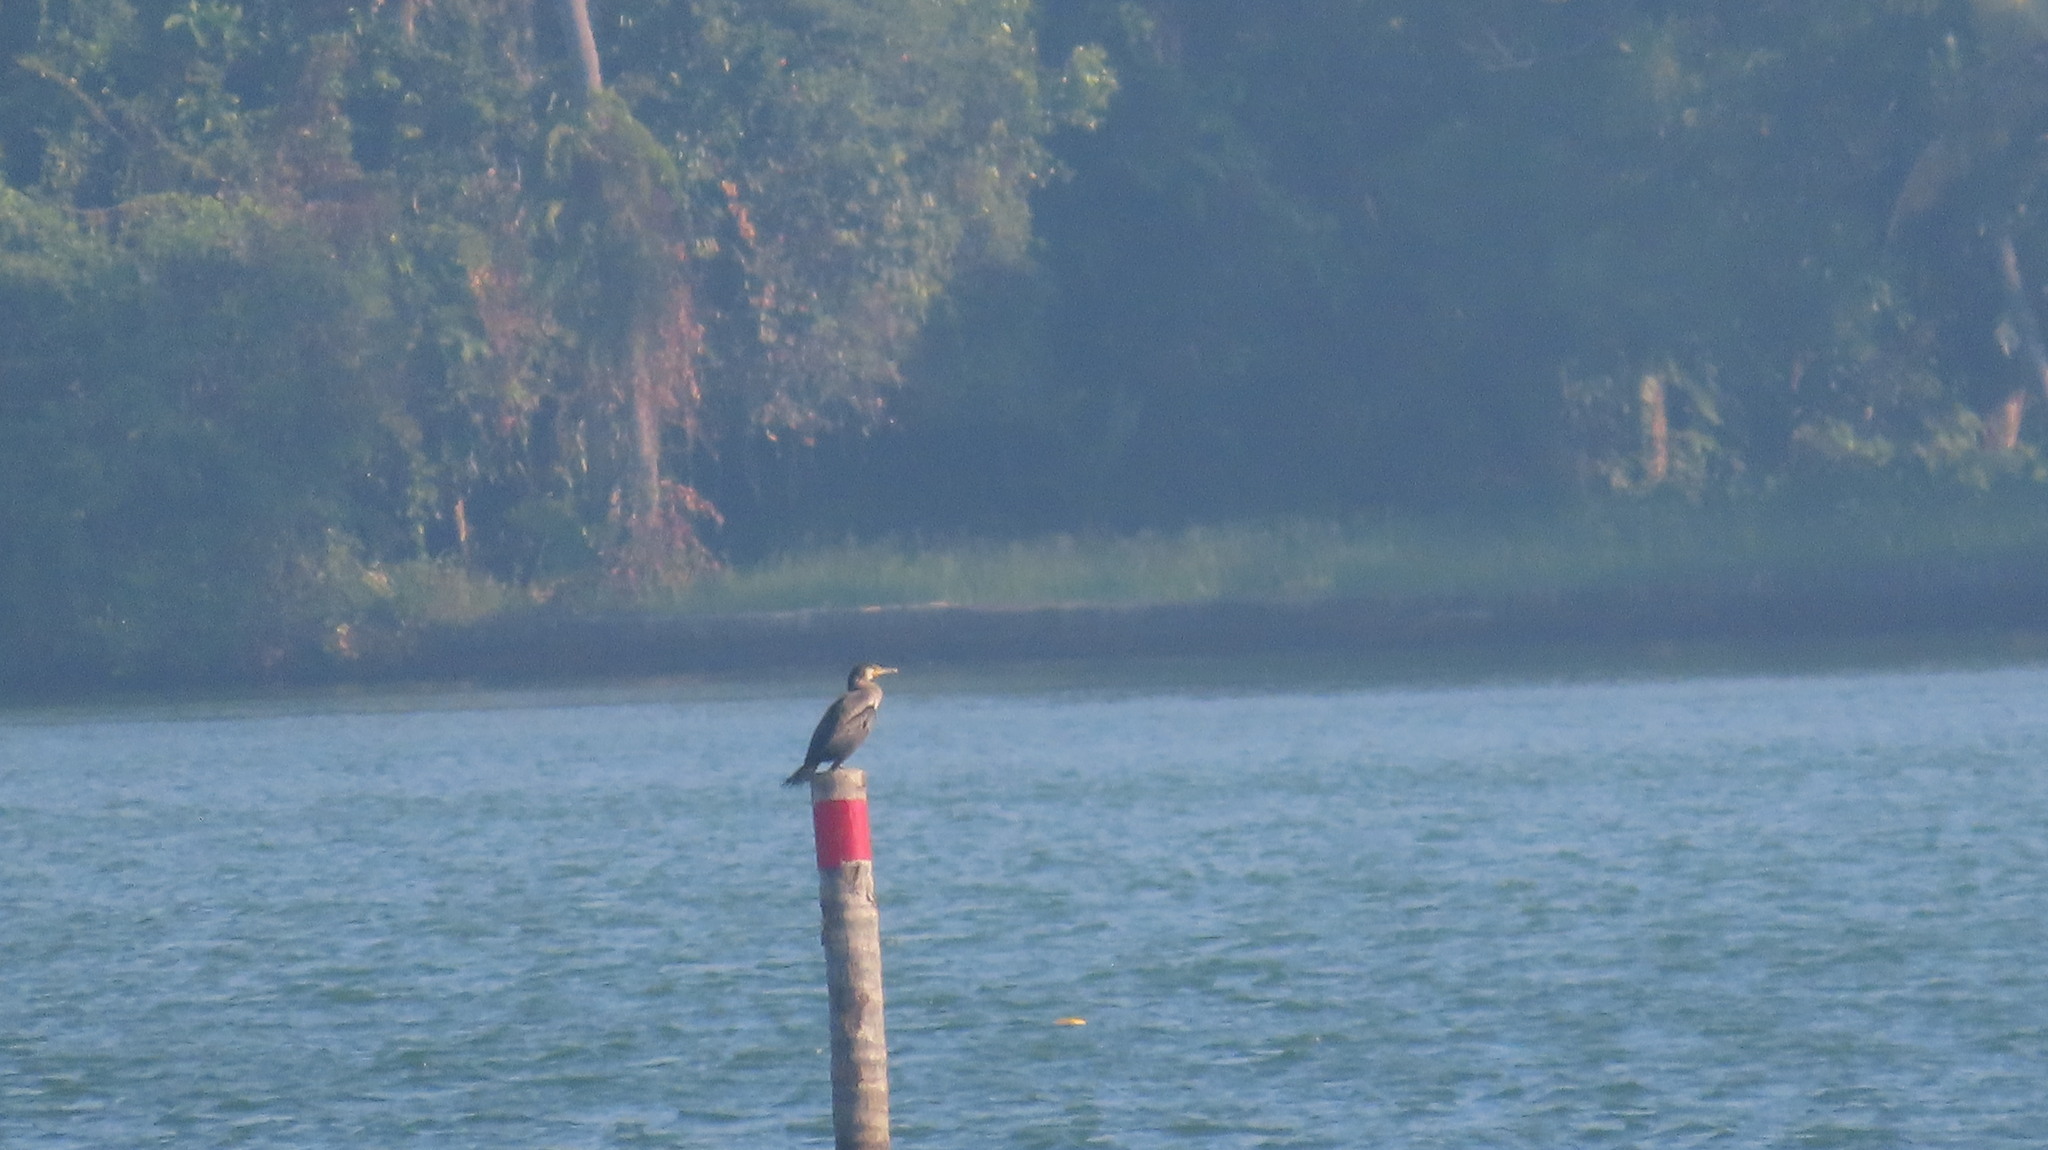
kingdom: Animalia
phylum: Chordata
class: Aves
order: Suliformes
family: Phalacrocoracidae
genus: Phalacrocorax
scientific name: Phalacrocorax carbo
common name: Great cormorant
